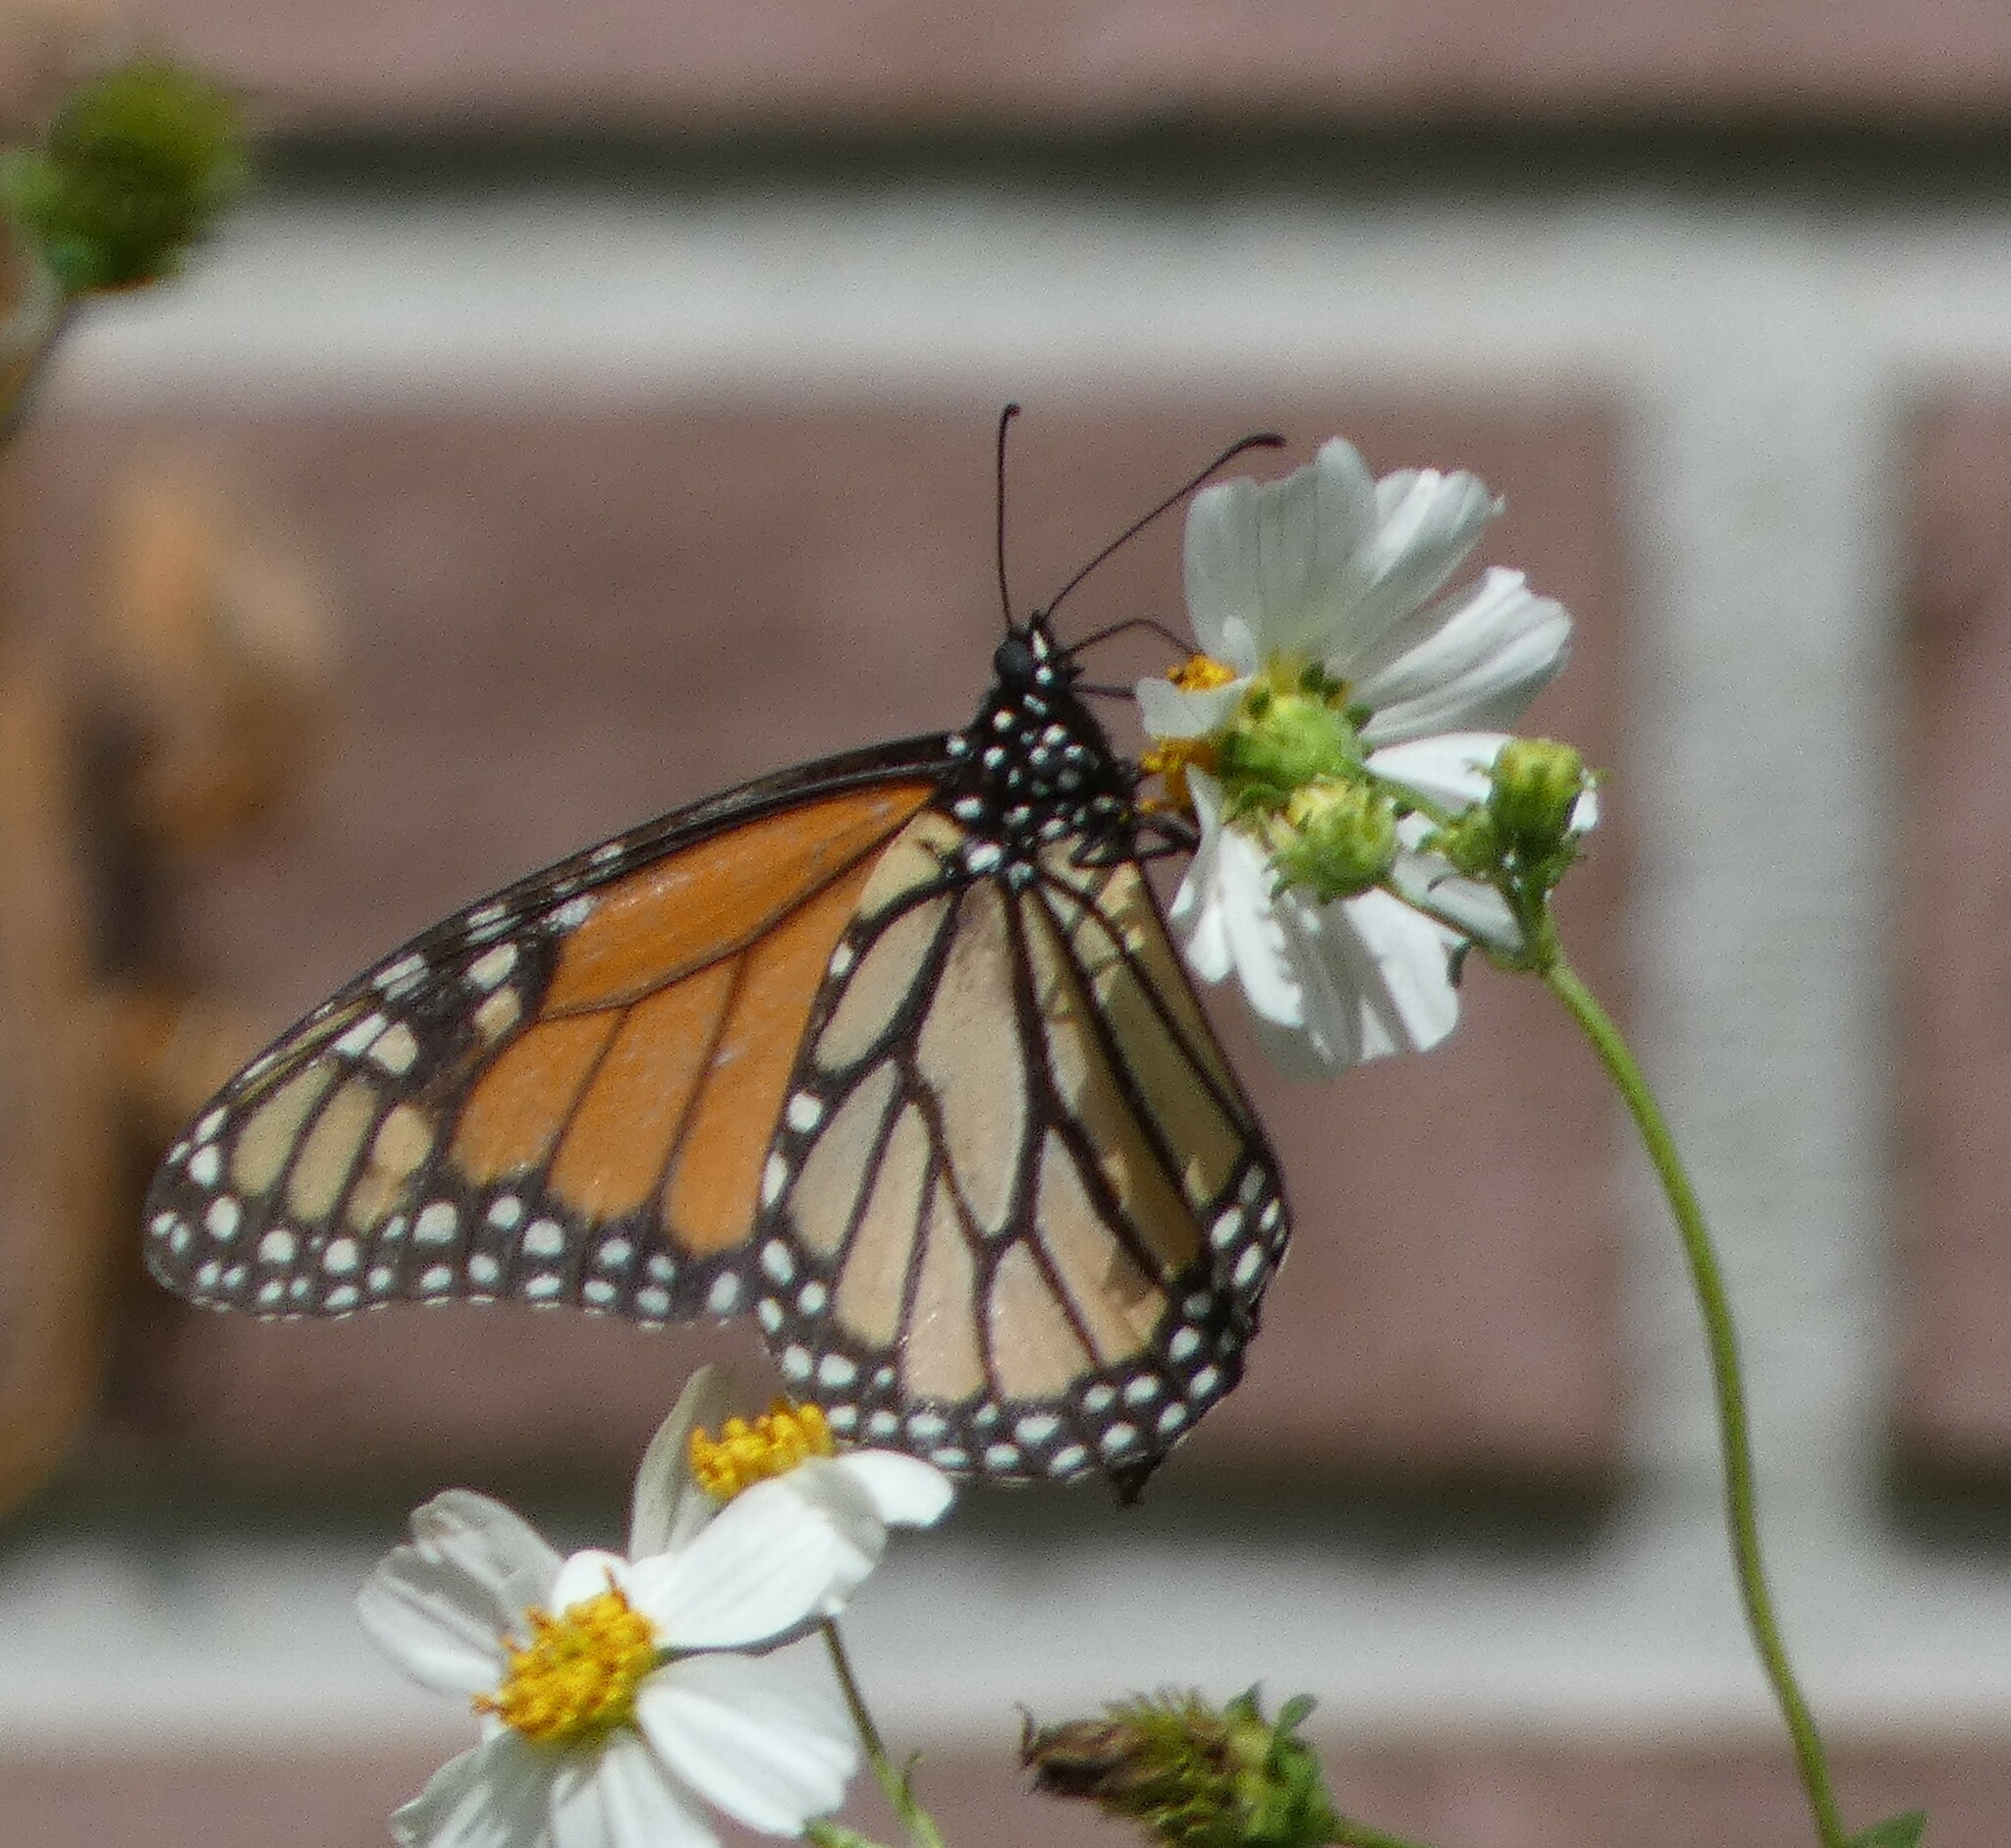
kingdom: Animalia
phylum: Arthropoda
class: Insecta
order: Lepidoptera
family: Nymphalidae
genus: Danaus
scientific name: Danaus plexippus
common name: Monarch
